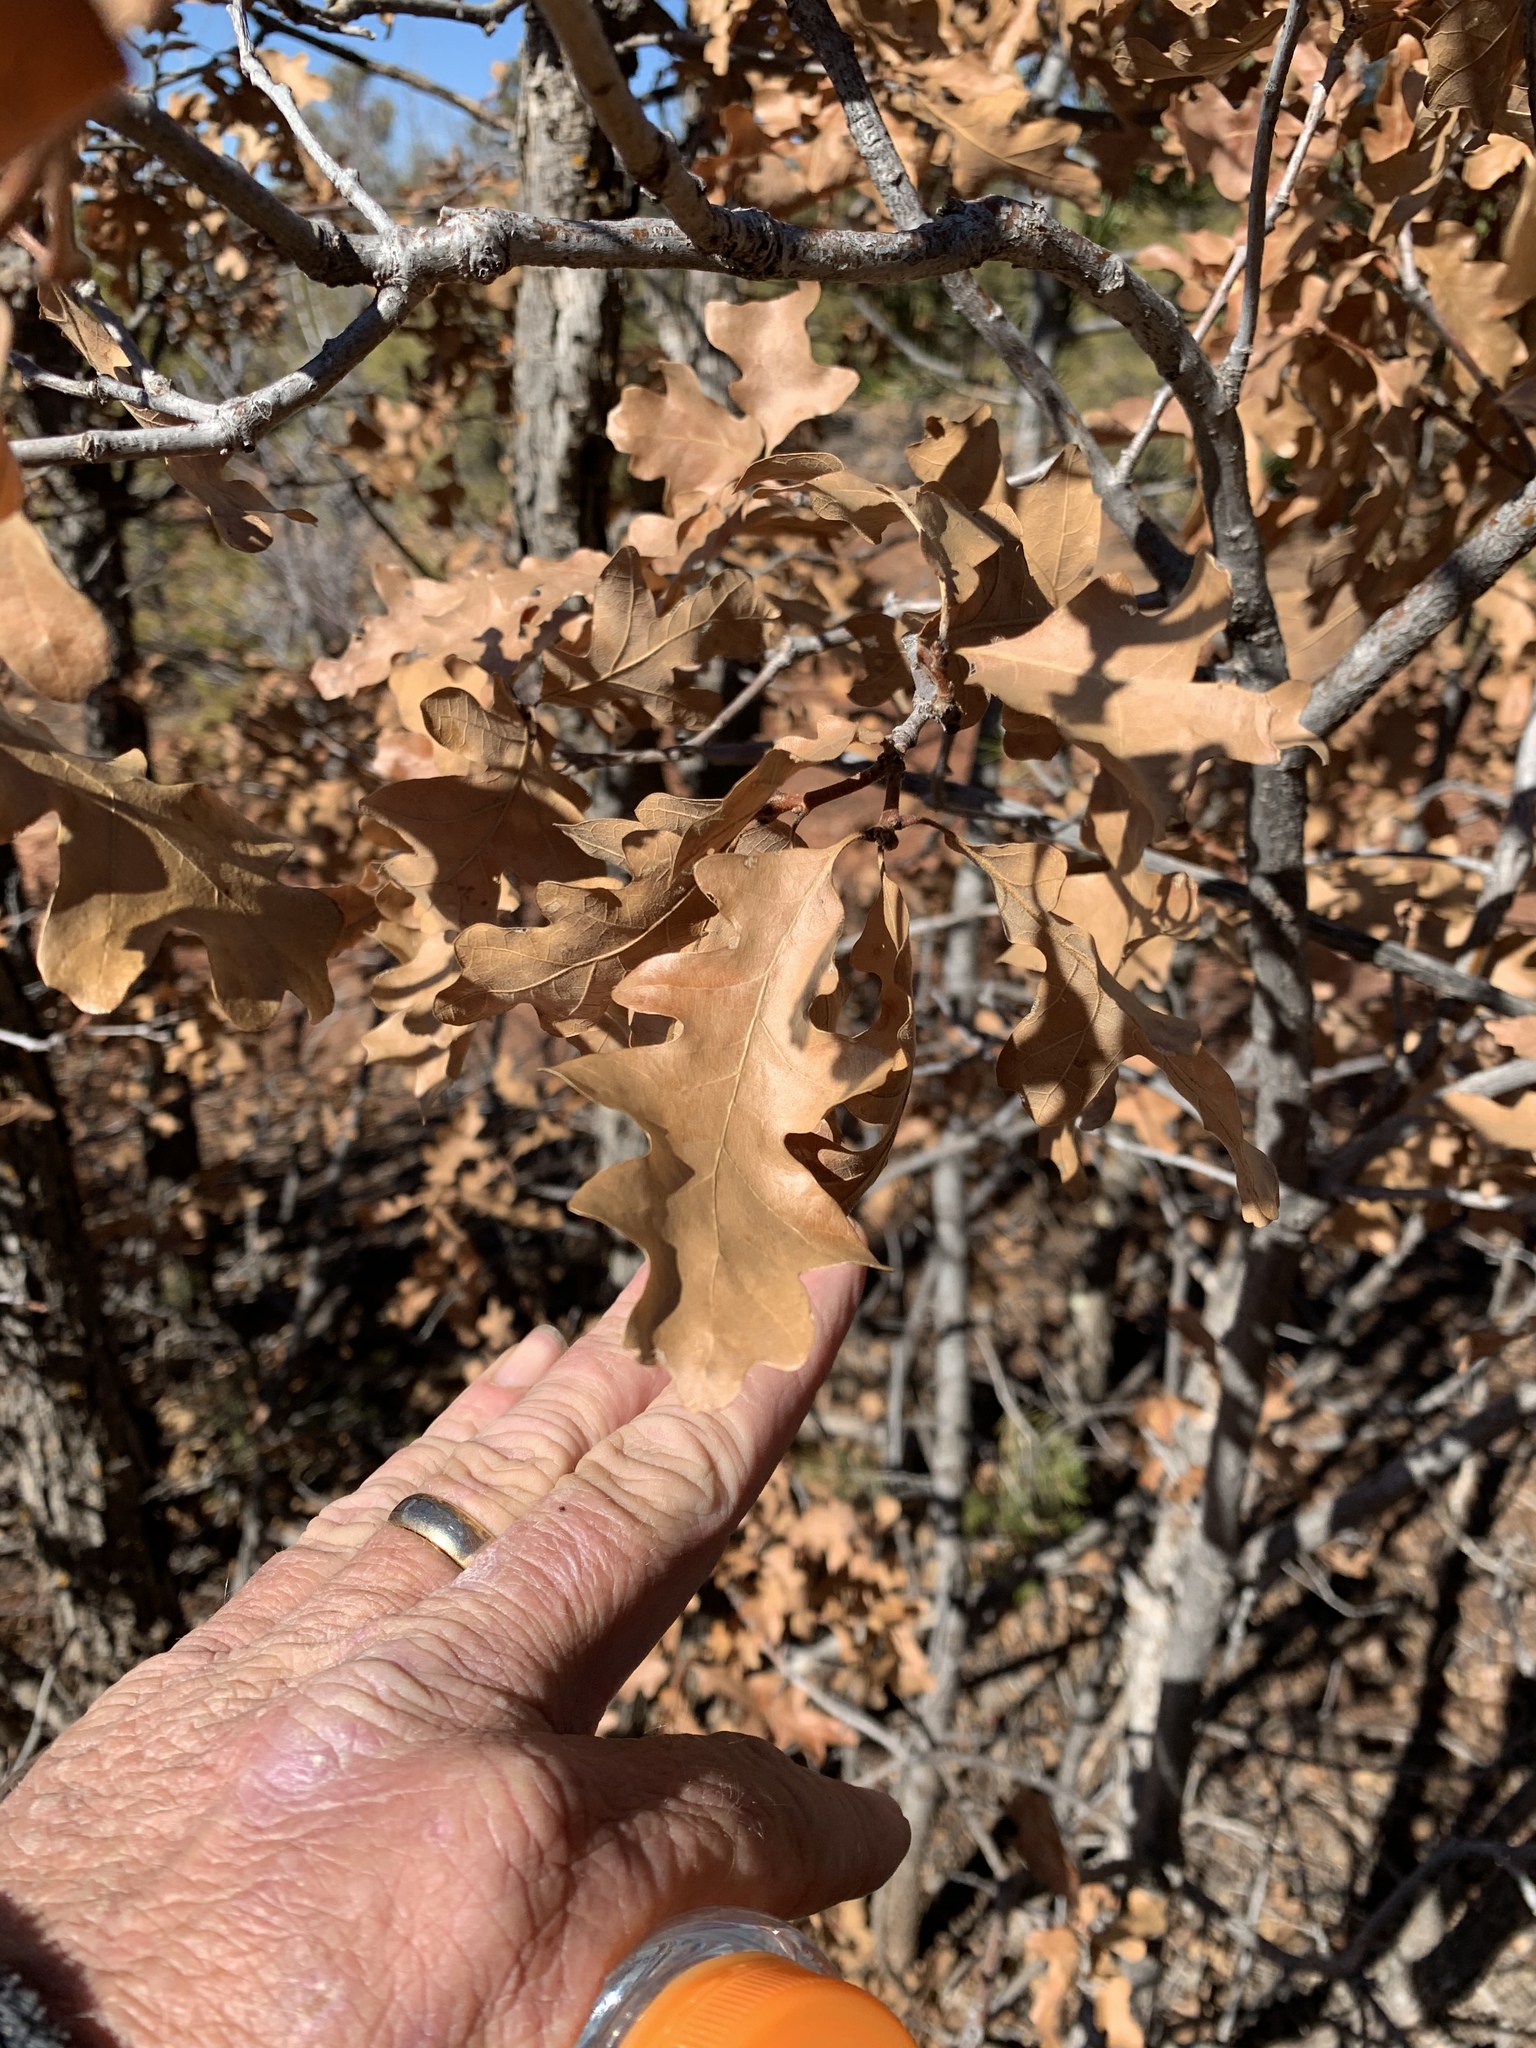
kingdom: Plantae
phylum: Tracheophyta
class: Magnoliopsida
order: Fagales
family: Fagaceae
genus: Quercus
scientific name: Quercus gambelii
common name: Gambel oak
